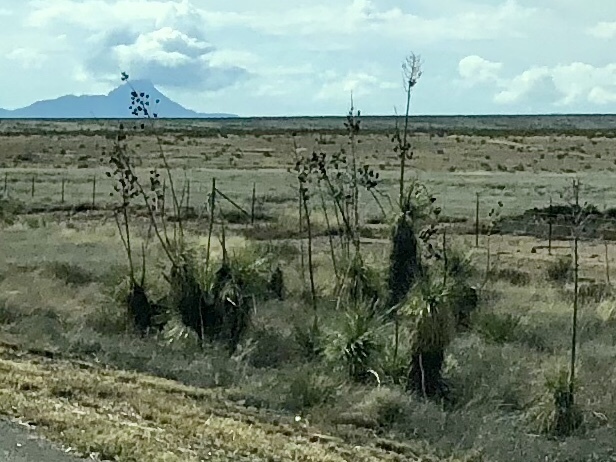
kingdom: Plantae
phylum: Tracheophyta
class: Liliopsida
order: Asparagales
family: Asparagaceae
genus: Yucca
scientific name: Yucca elata
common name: Palmella
